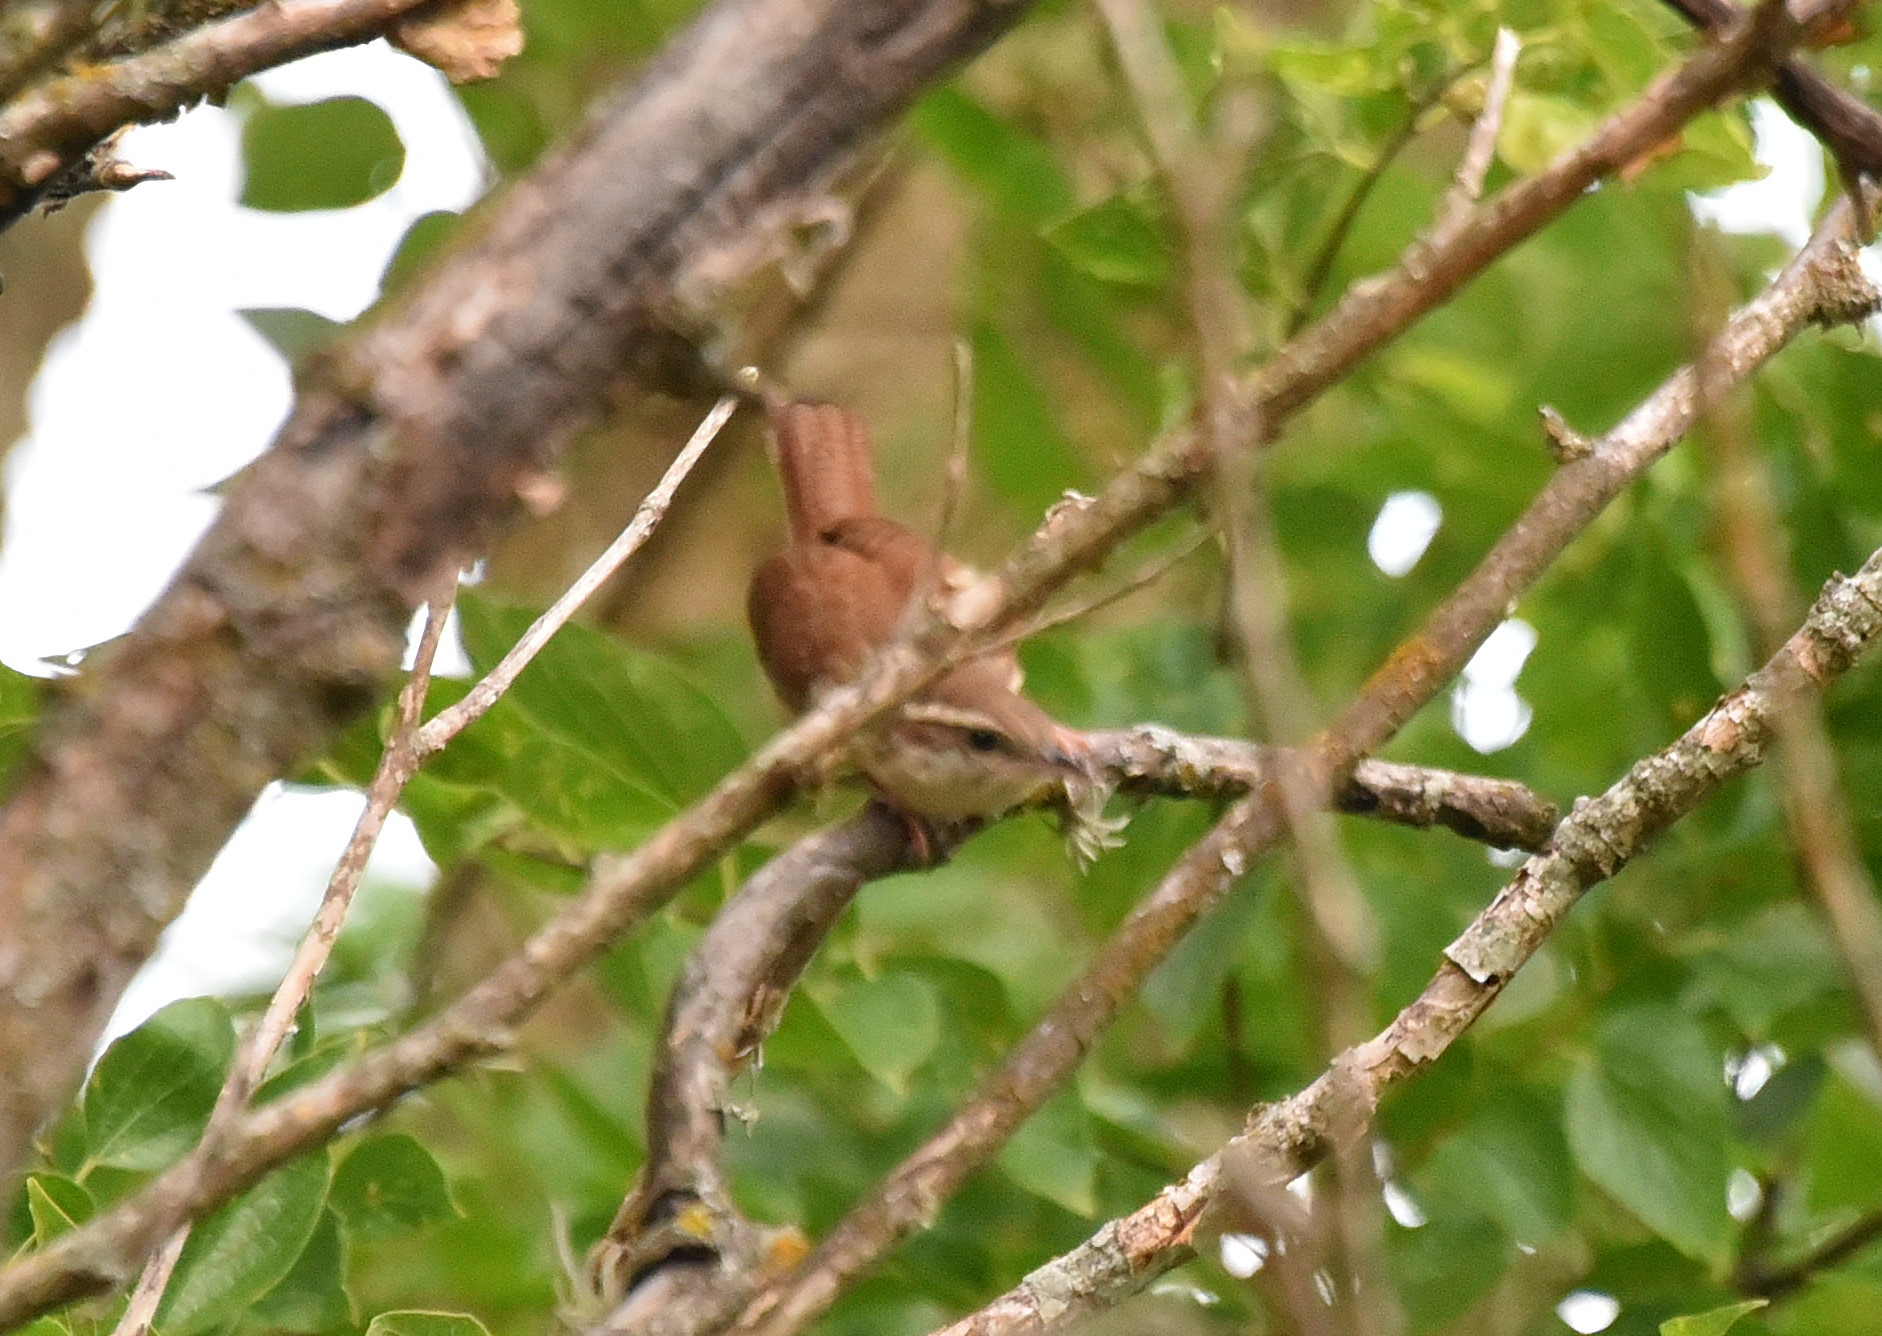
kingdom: Animalia
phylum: Chordata
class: Aves
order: Passeriformes
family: Troglodytidae
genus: Thryothorus
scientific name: Thryothorus ludovicianus
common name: Carolina wren
